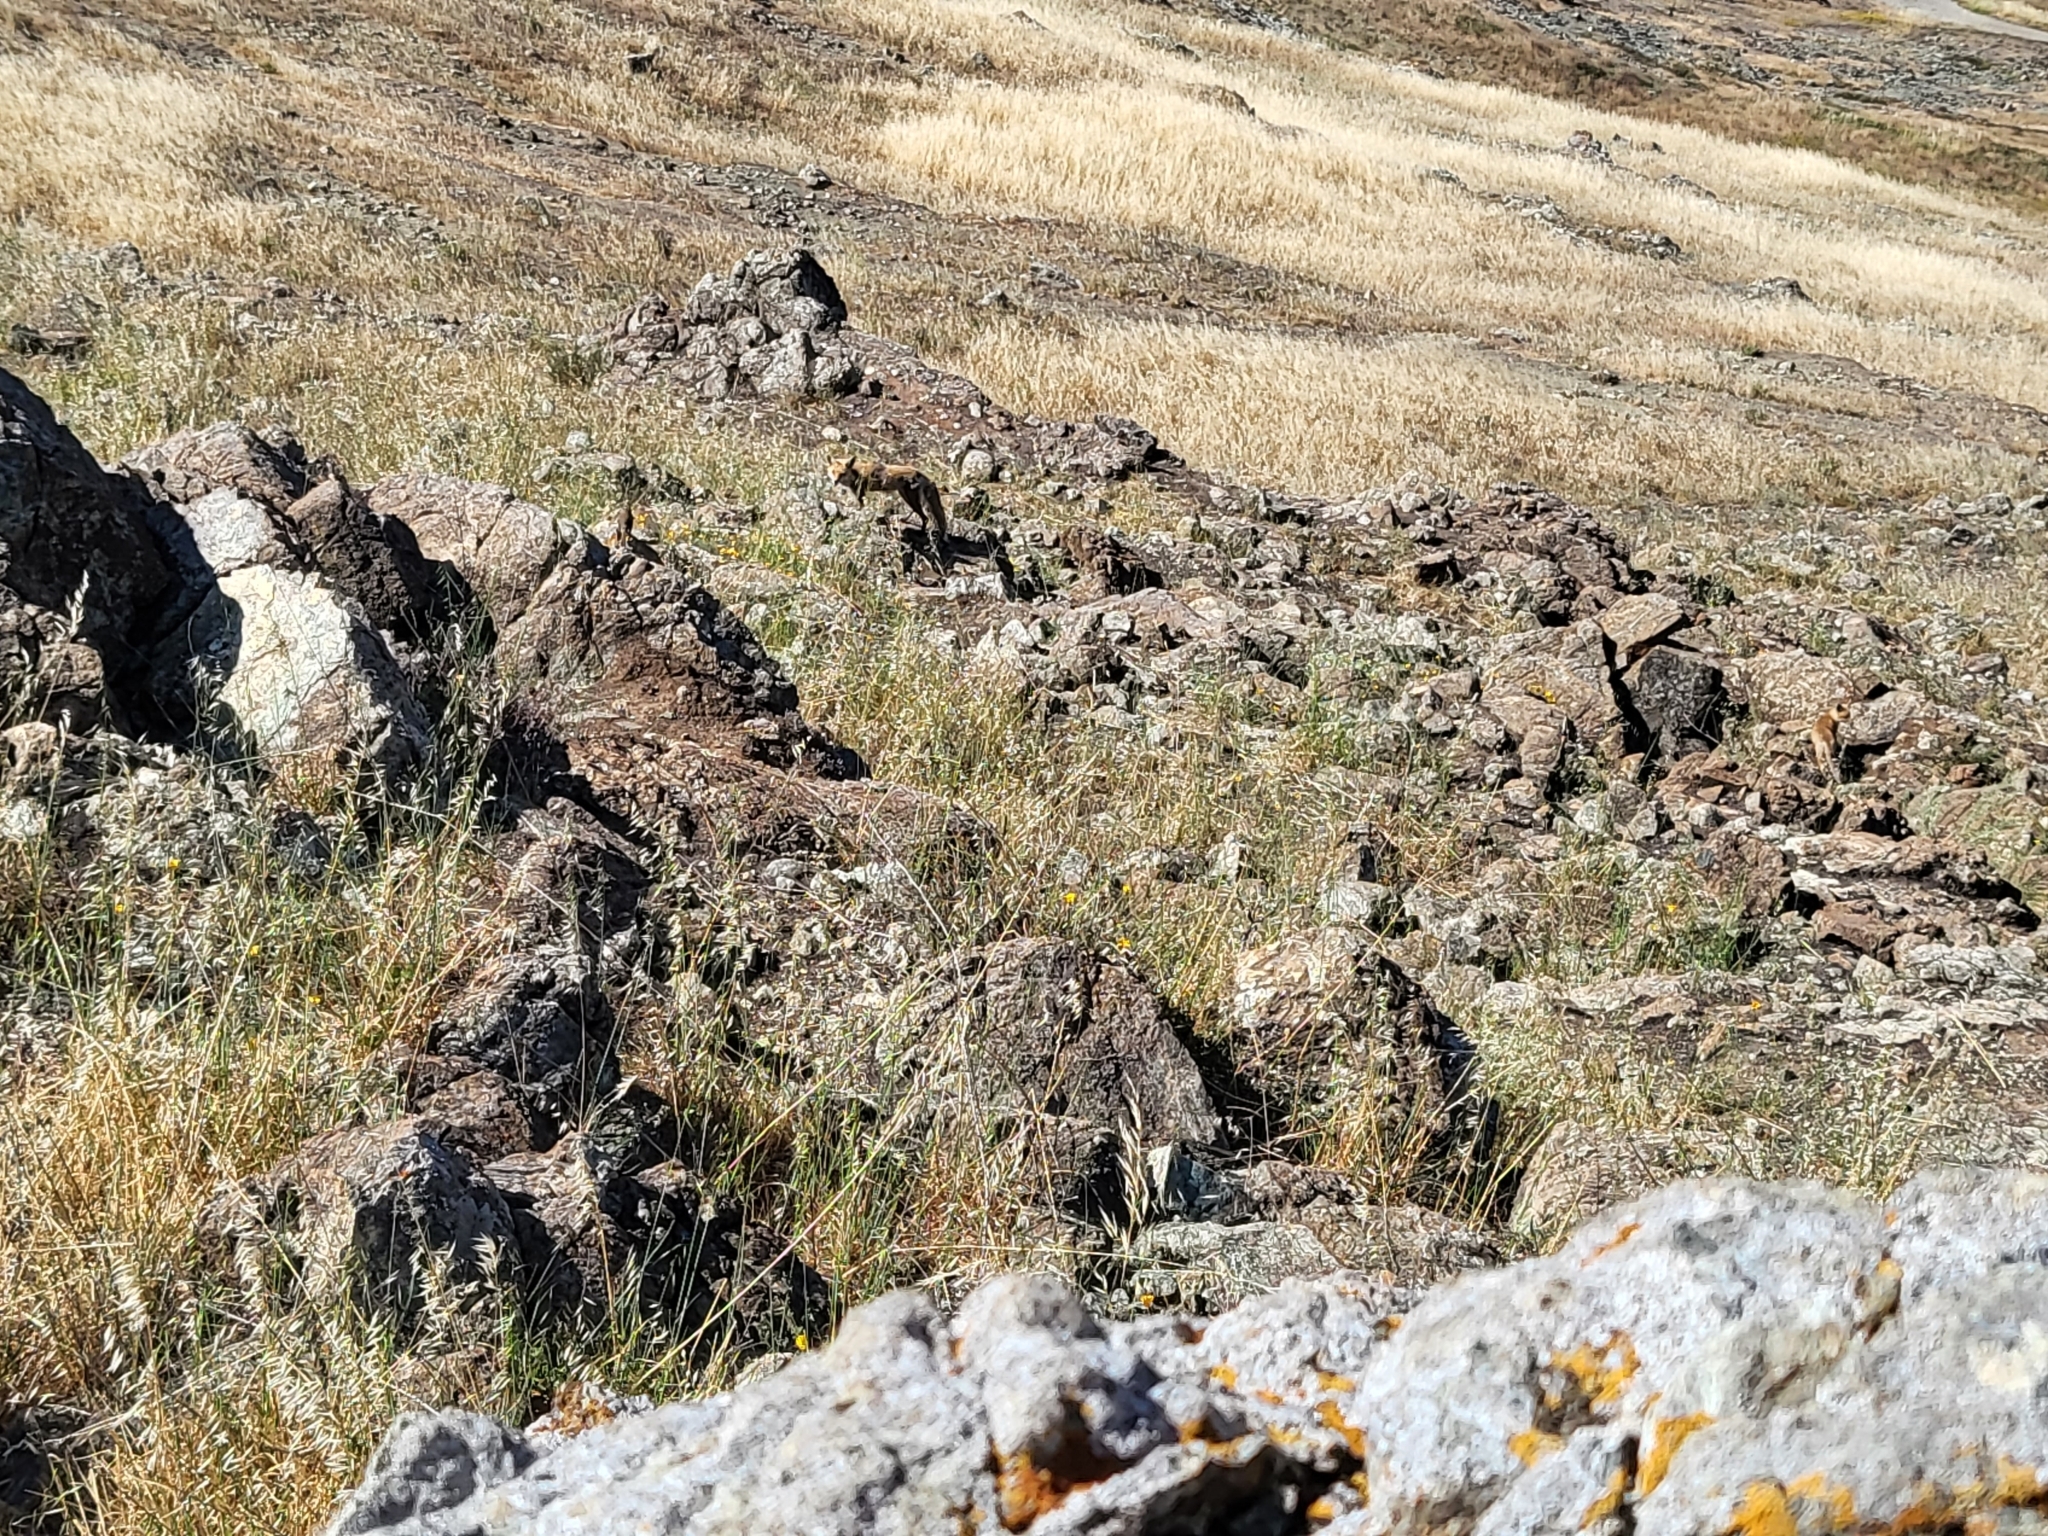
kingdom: Animalia
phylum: Chordata
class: Mammalia
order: Carnivora
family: Canidae
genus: Vulpes
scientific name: Vulpes vulpes
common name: Red fox
